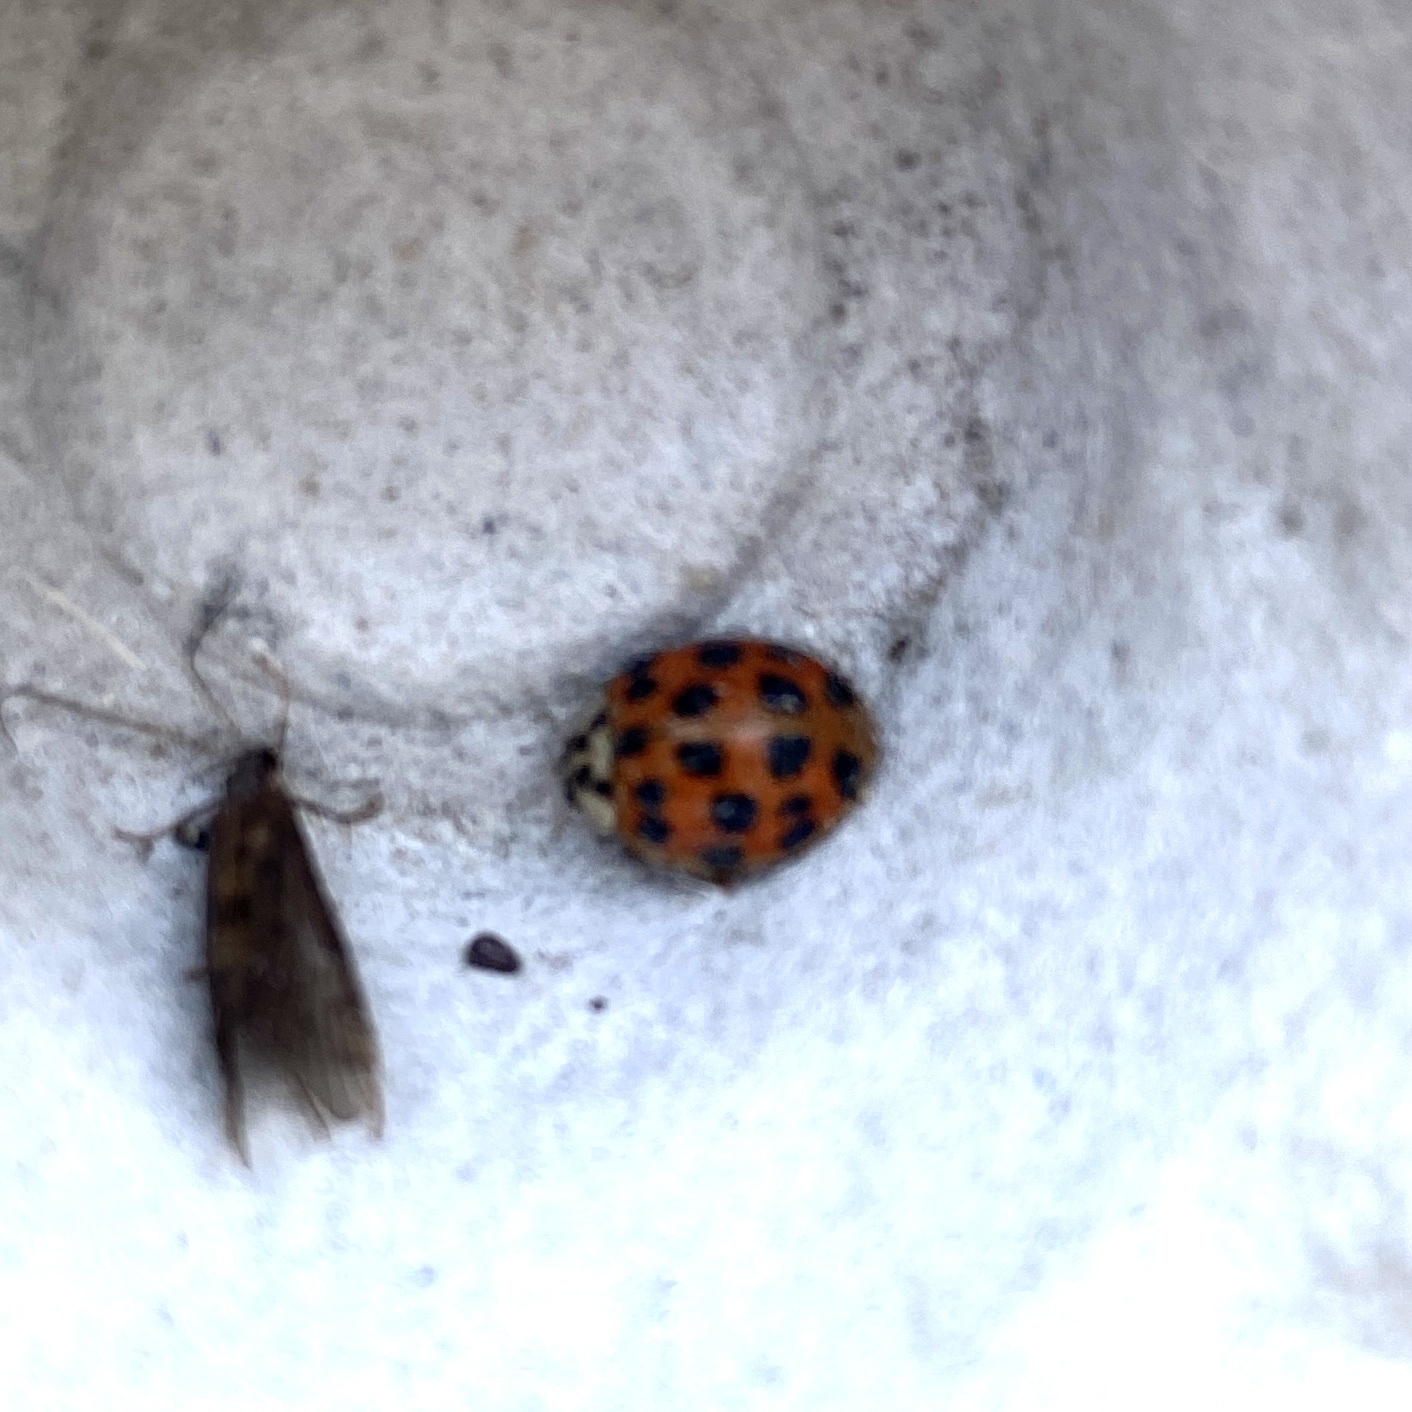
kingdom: Animalia
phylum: Arthropoda
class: Insecta
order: Coleoptera
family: Coccinellidae
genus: Harmonia
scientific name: Harmonia axyridis
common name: Harlequin ladybird
